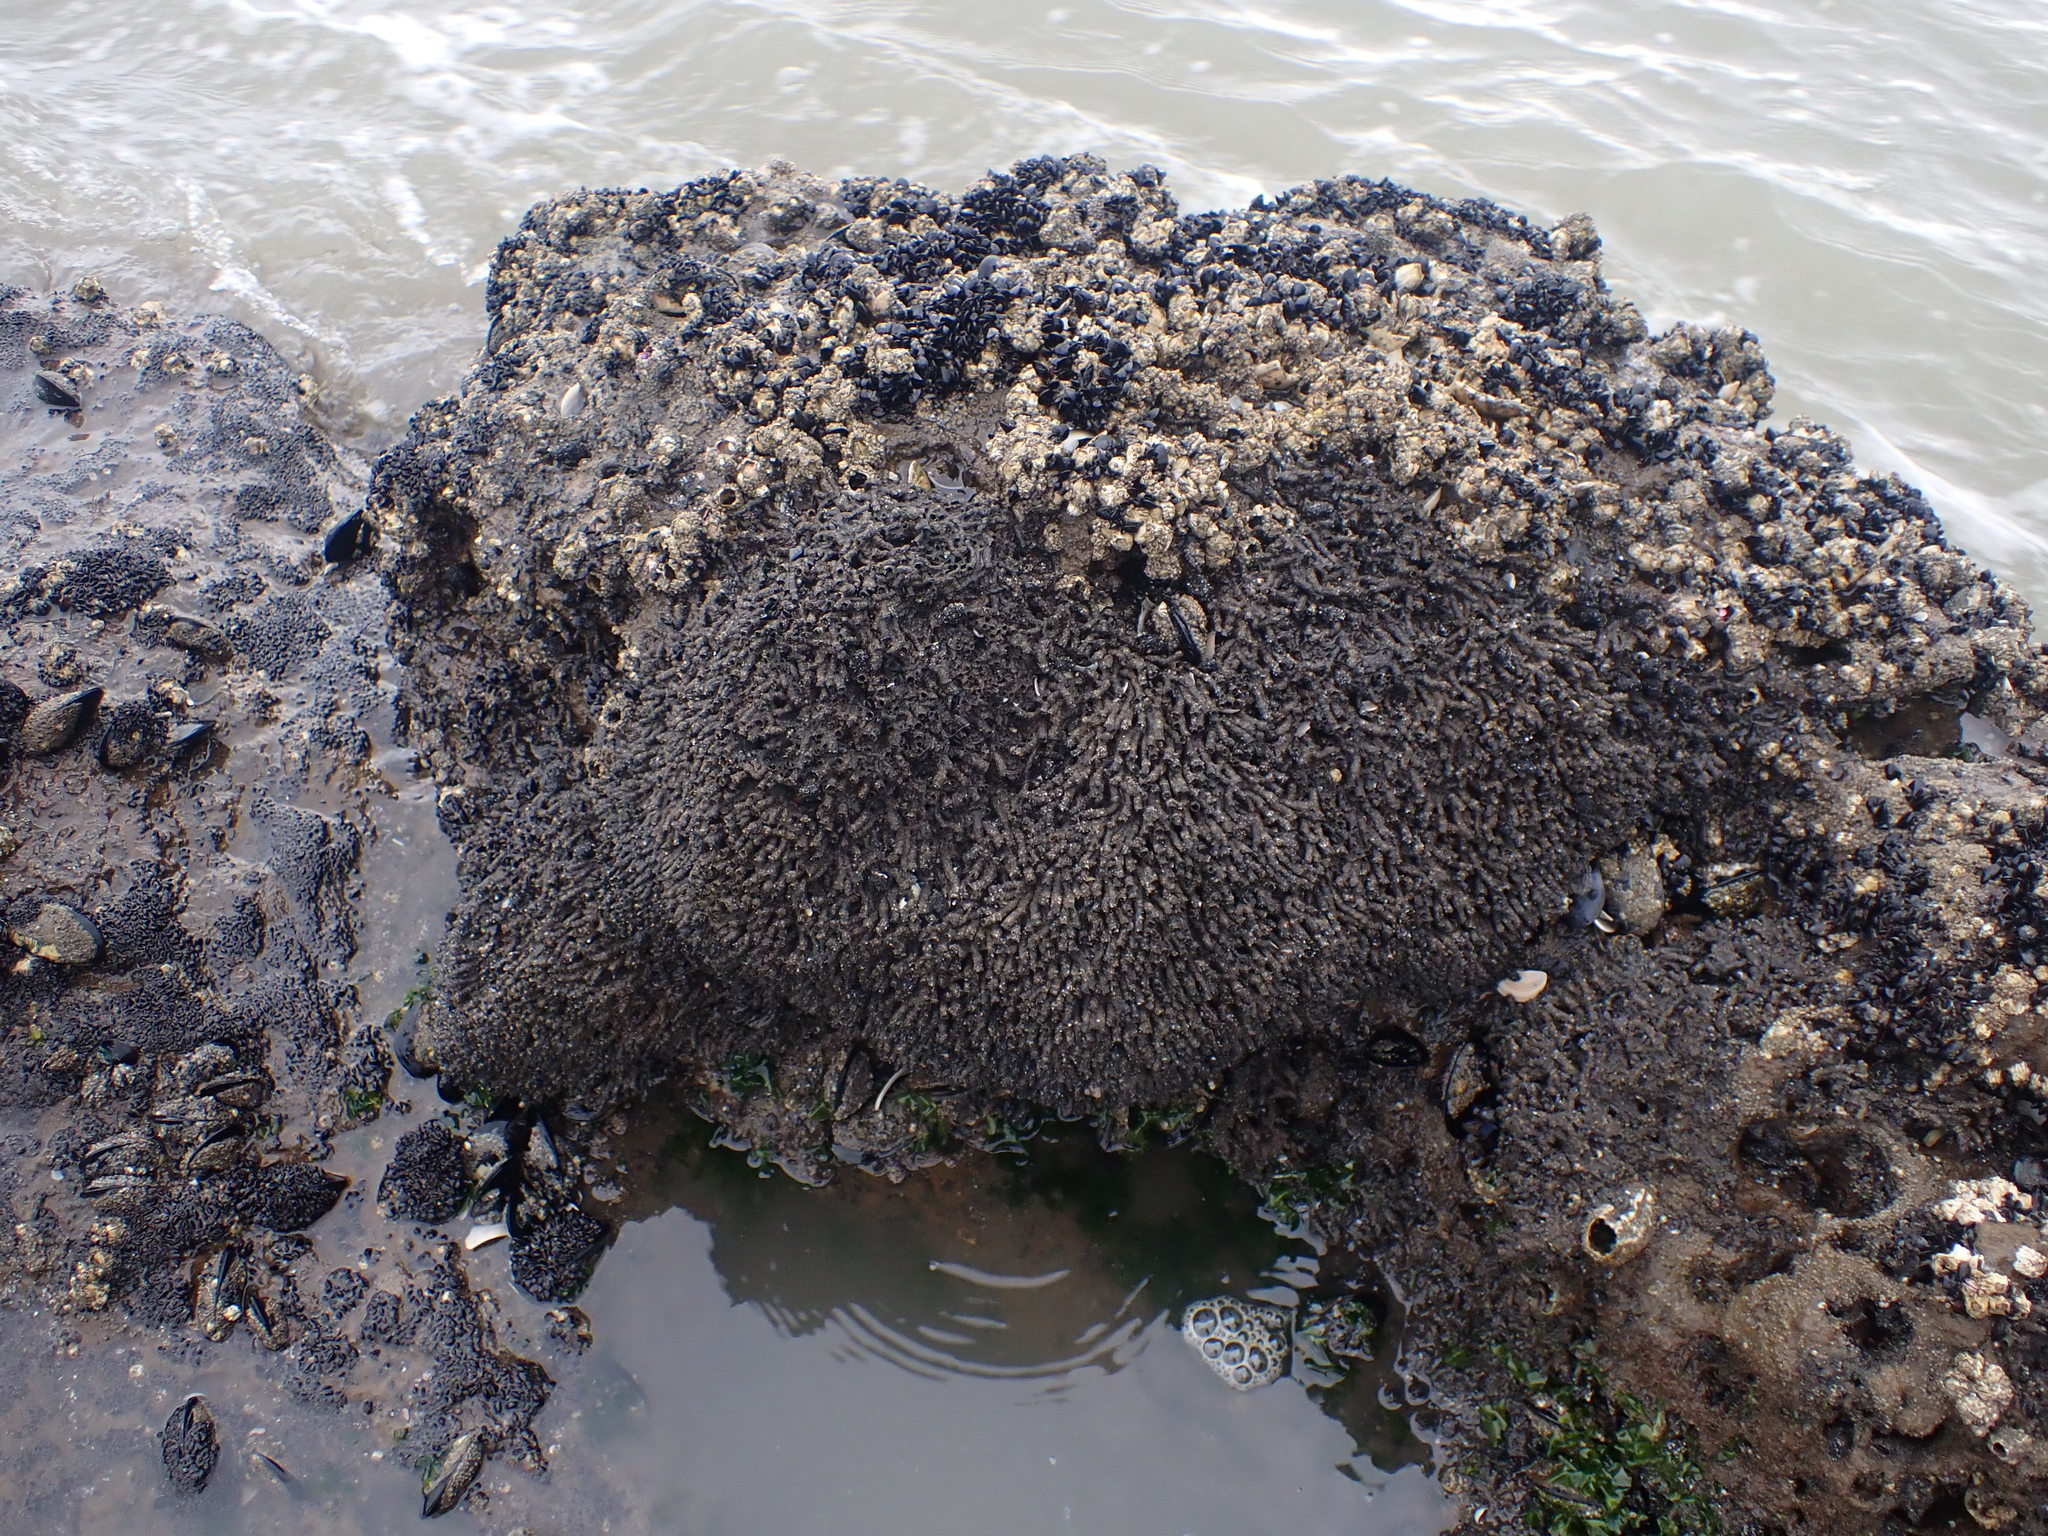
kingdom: Animalia
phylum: Annelida
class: Polychaeta
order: Sabellida
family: Sabellariidae
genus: Neosabellaria
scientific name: Neosabellaria kaiparaensis
